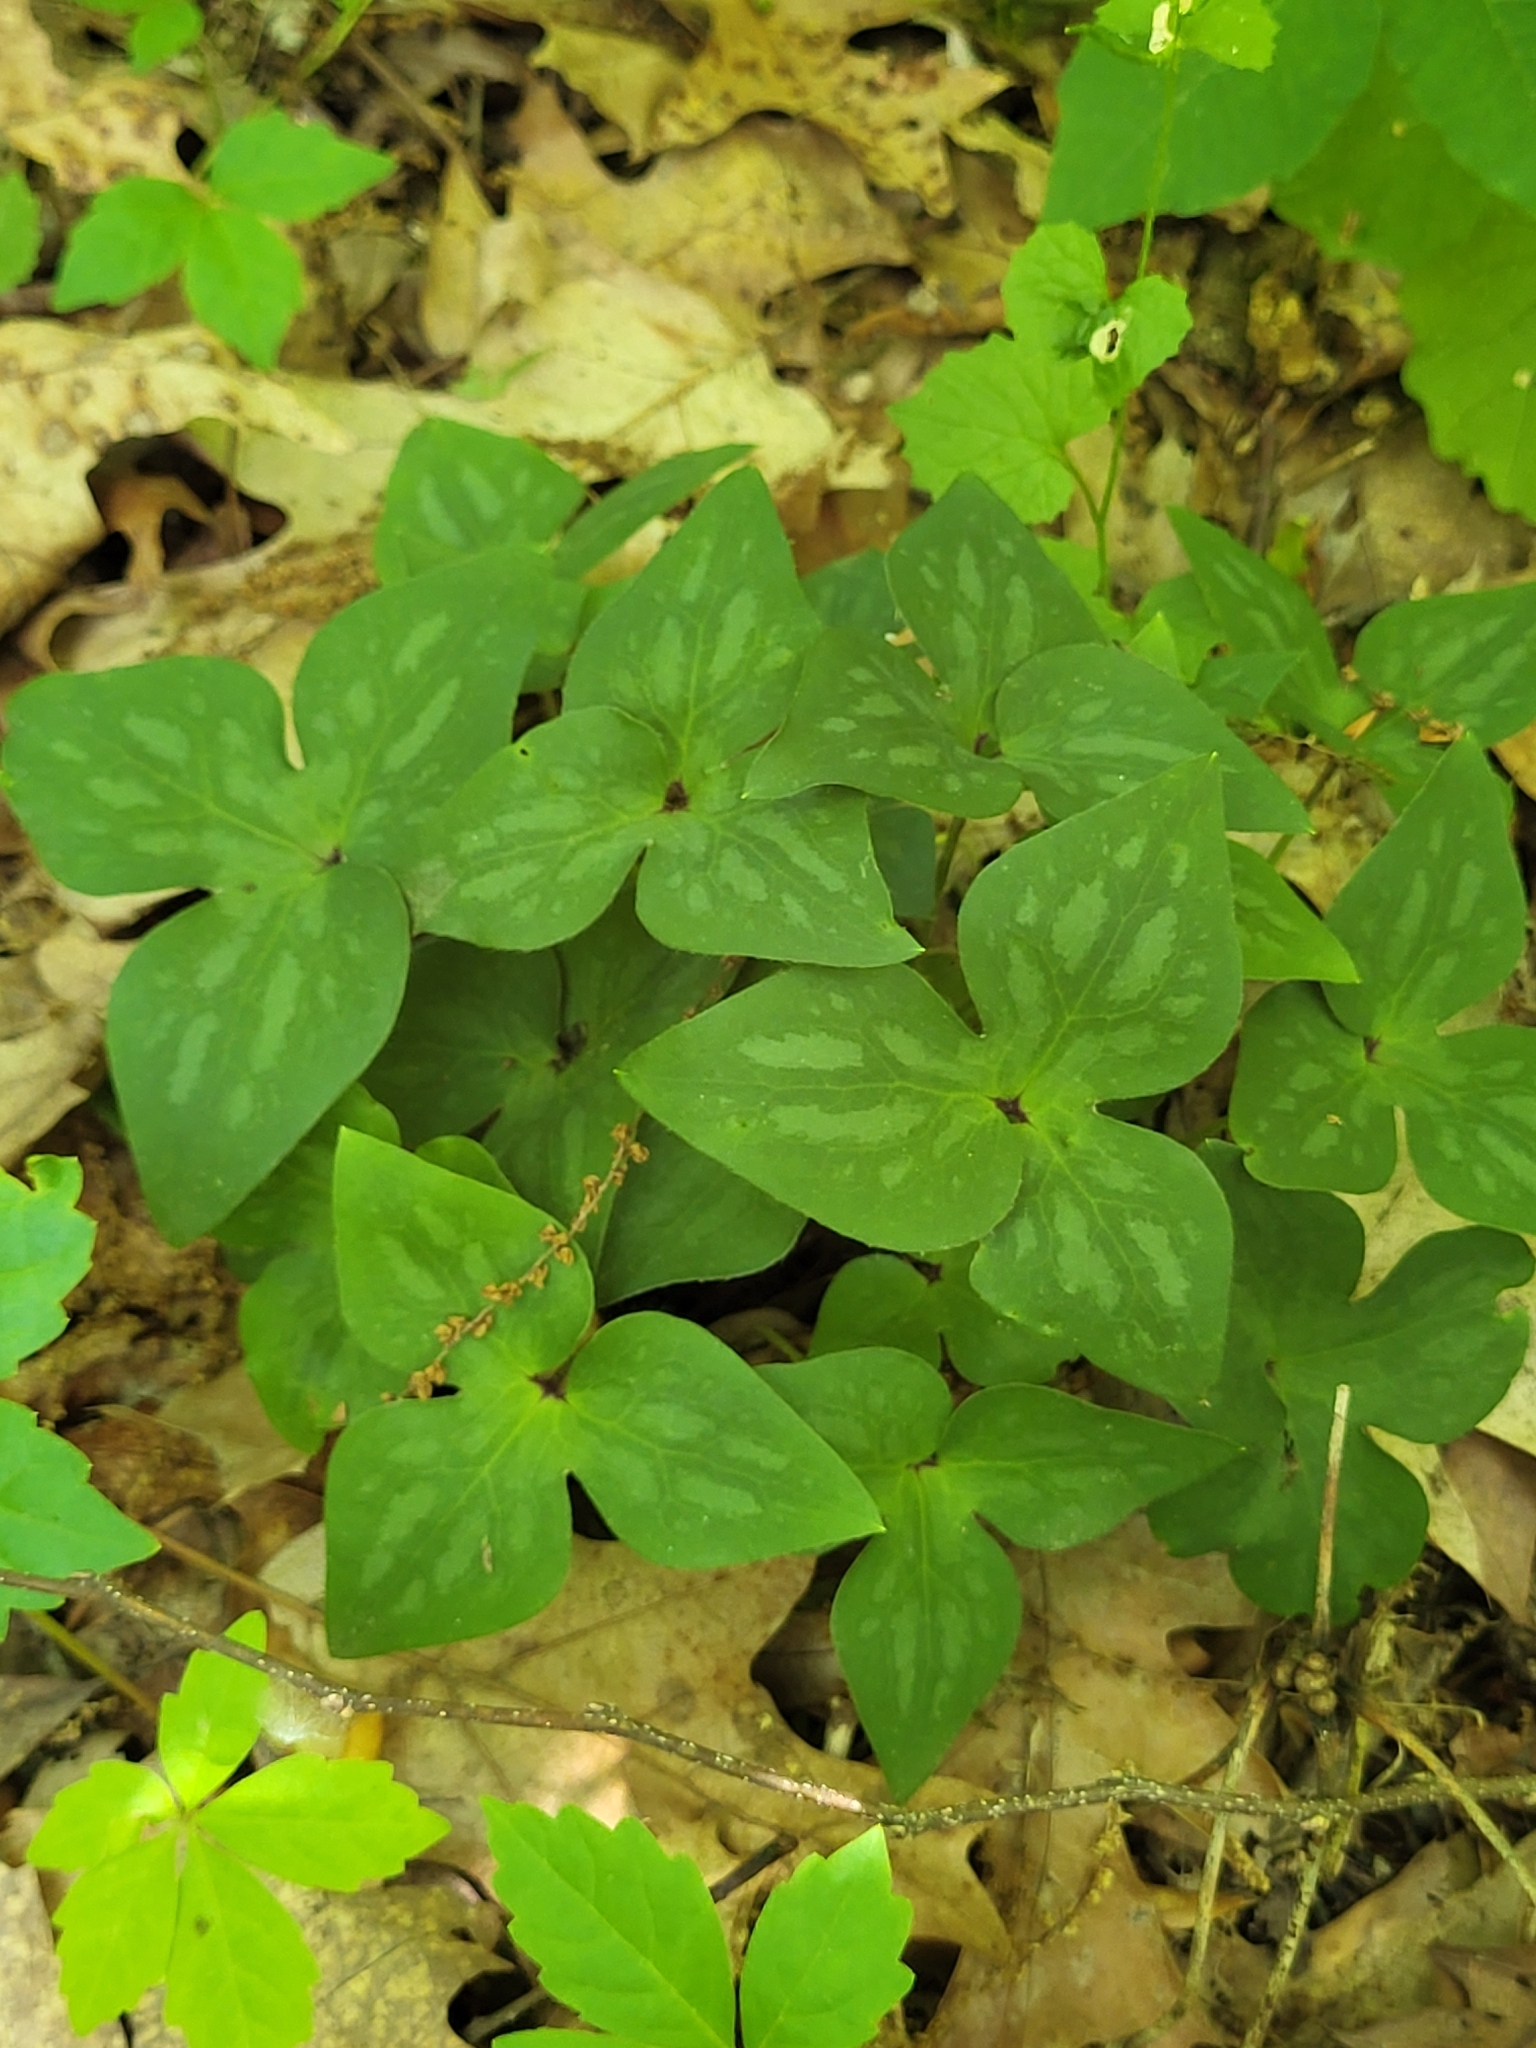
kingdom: Plantae
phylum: Tracheophyta
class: Magnoliopsida
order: Ranunculales
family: Ranunculaceae
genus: Hepatica
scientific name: Hepatica acutiloba
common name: Sharp-lobed hepatica
